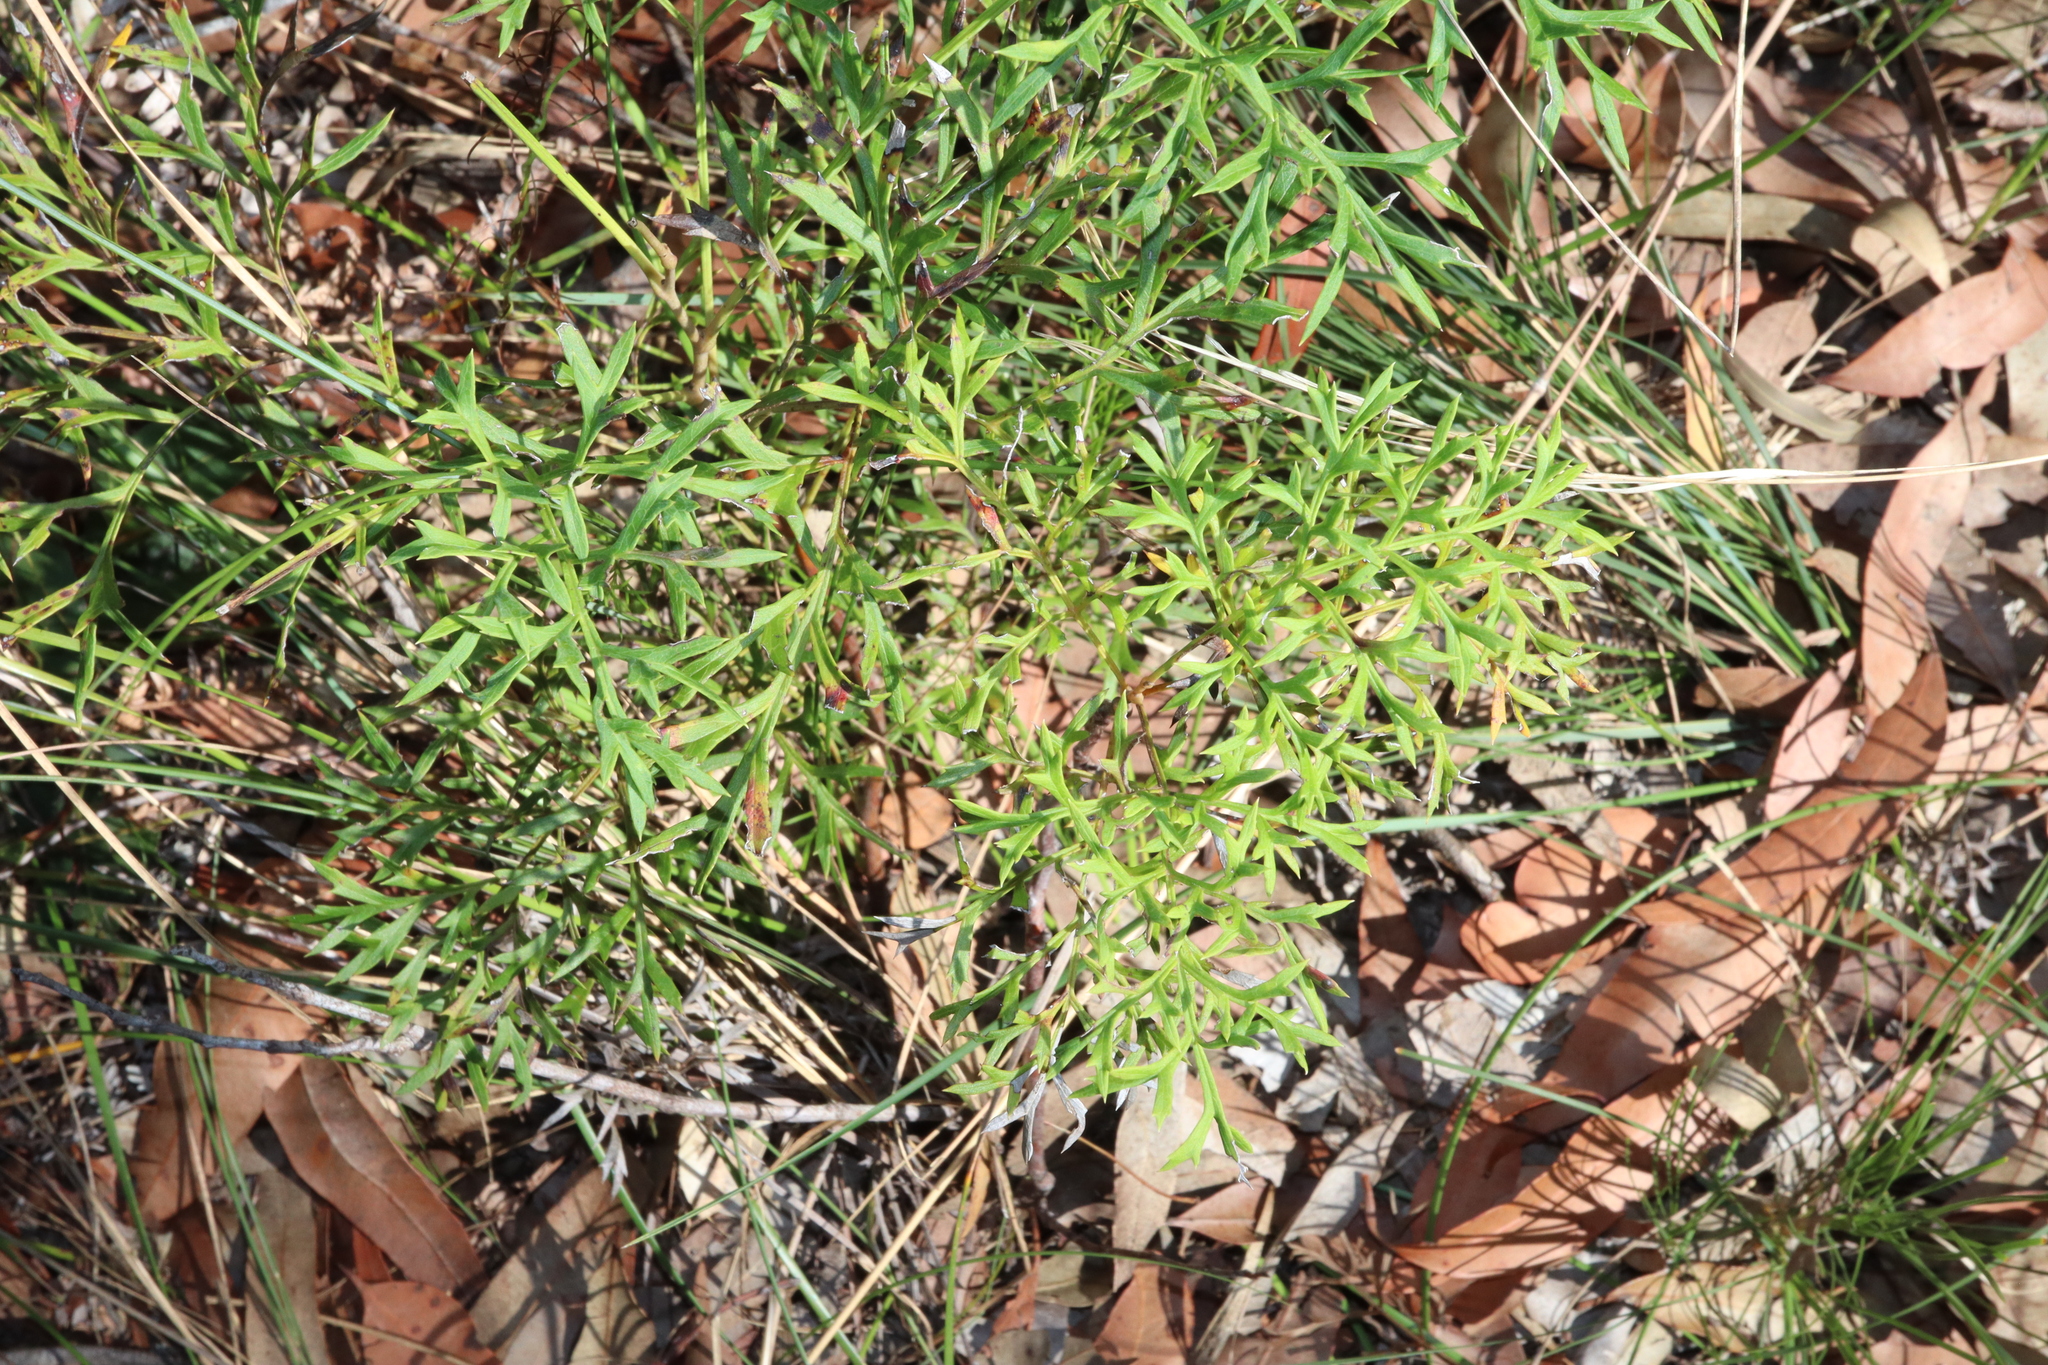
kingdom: Plantae
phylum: Tracheophyta
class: Magnoliopsida
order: Proteales
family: Proteaceae
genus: Lomatia
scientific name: Lomatia silaifolia
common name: Crinklebush
